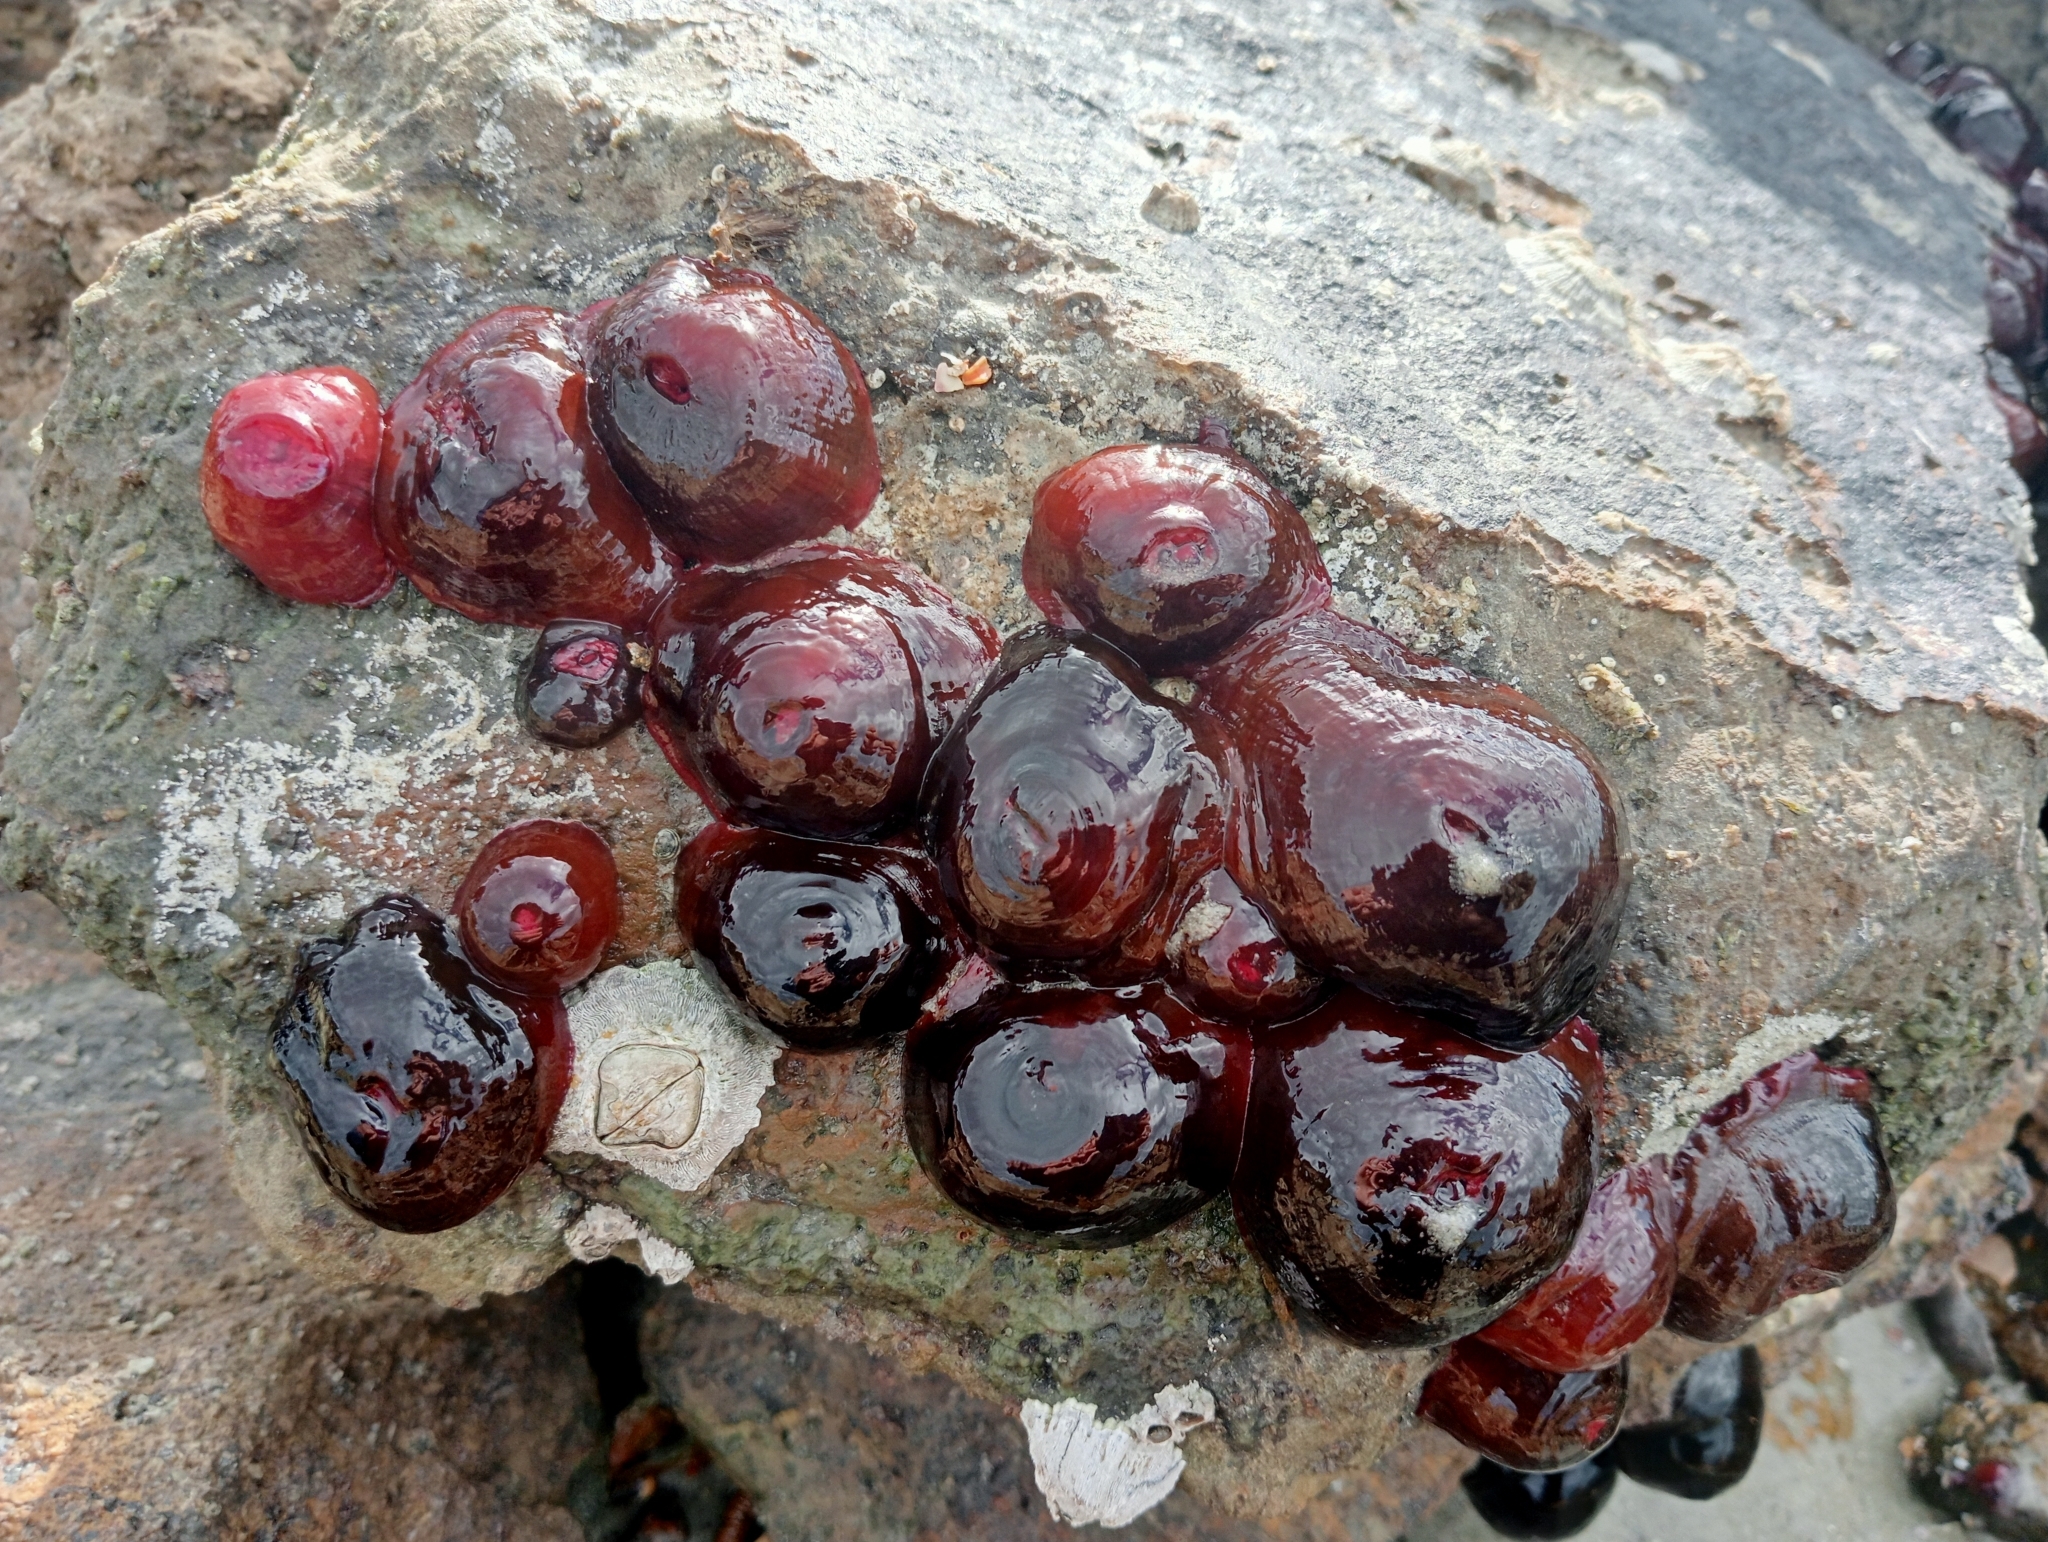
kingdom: Animalia
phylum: Cnidaria
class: Anthozoa
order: Actiniaria
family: Actiniidae
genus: Actinia
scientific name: Actinia tenebrosa
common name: Waratah anemone
